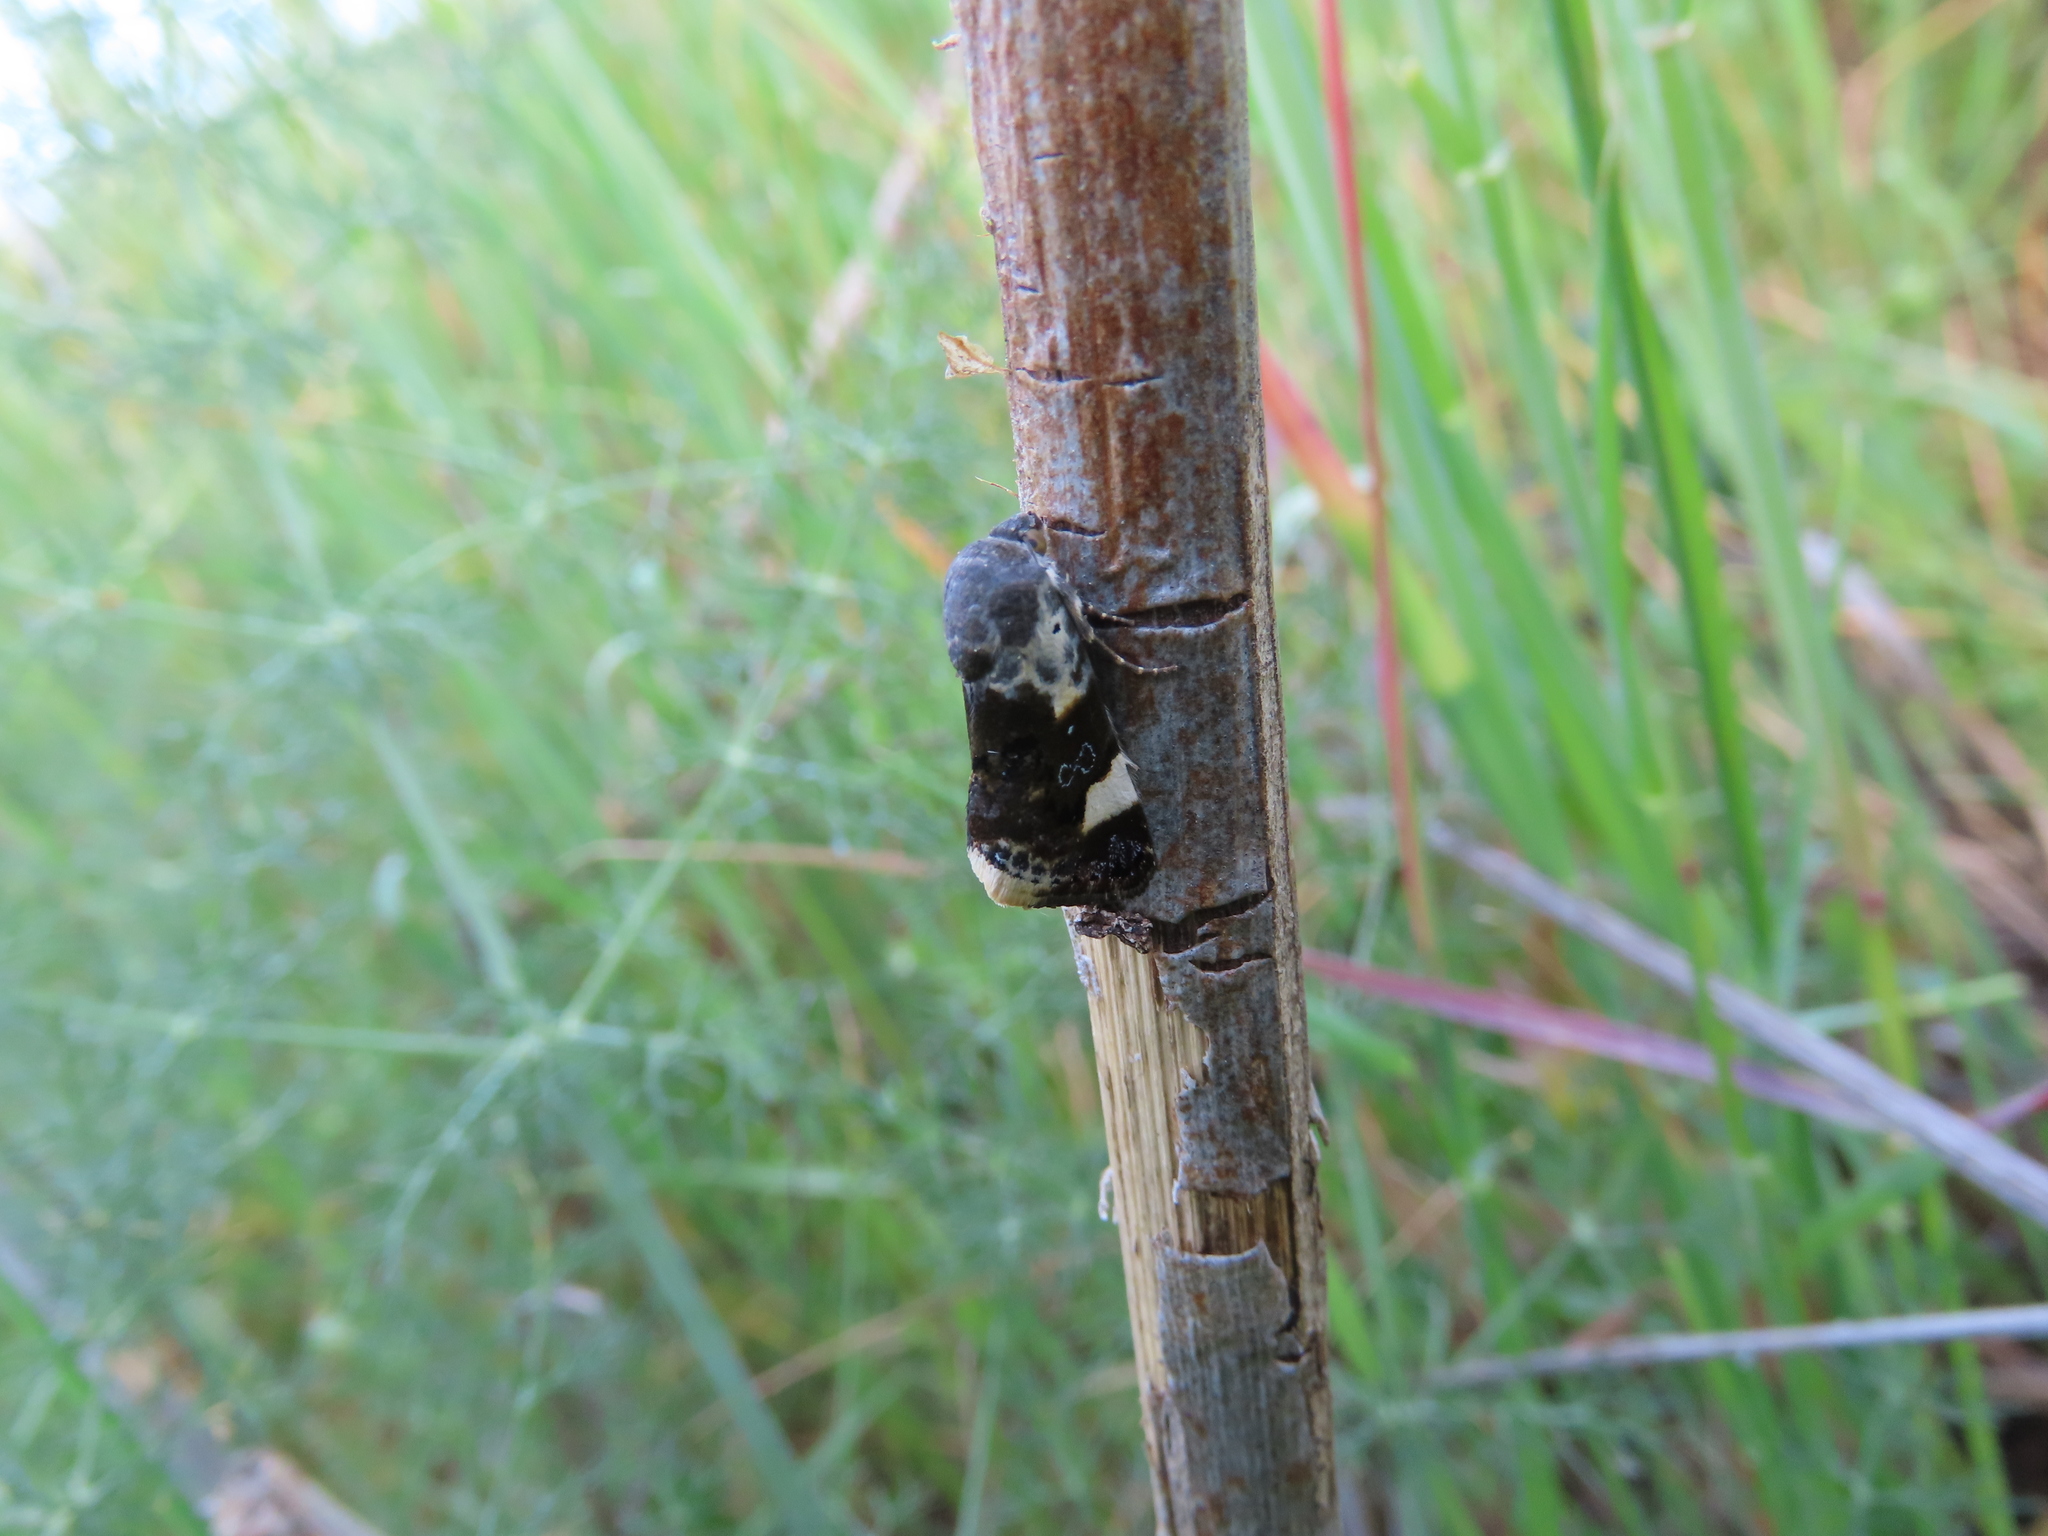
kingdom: Animalia
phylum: Arthropoda
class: Insecta
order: Lepidoptera
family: Noctuidae
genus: Acontia
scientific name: Acontia lucida
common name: Pale shoulder
